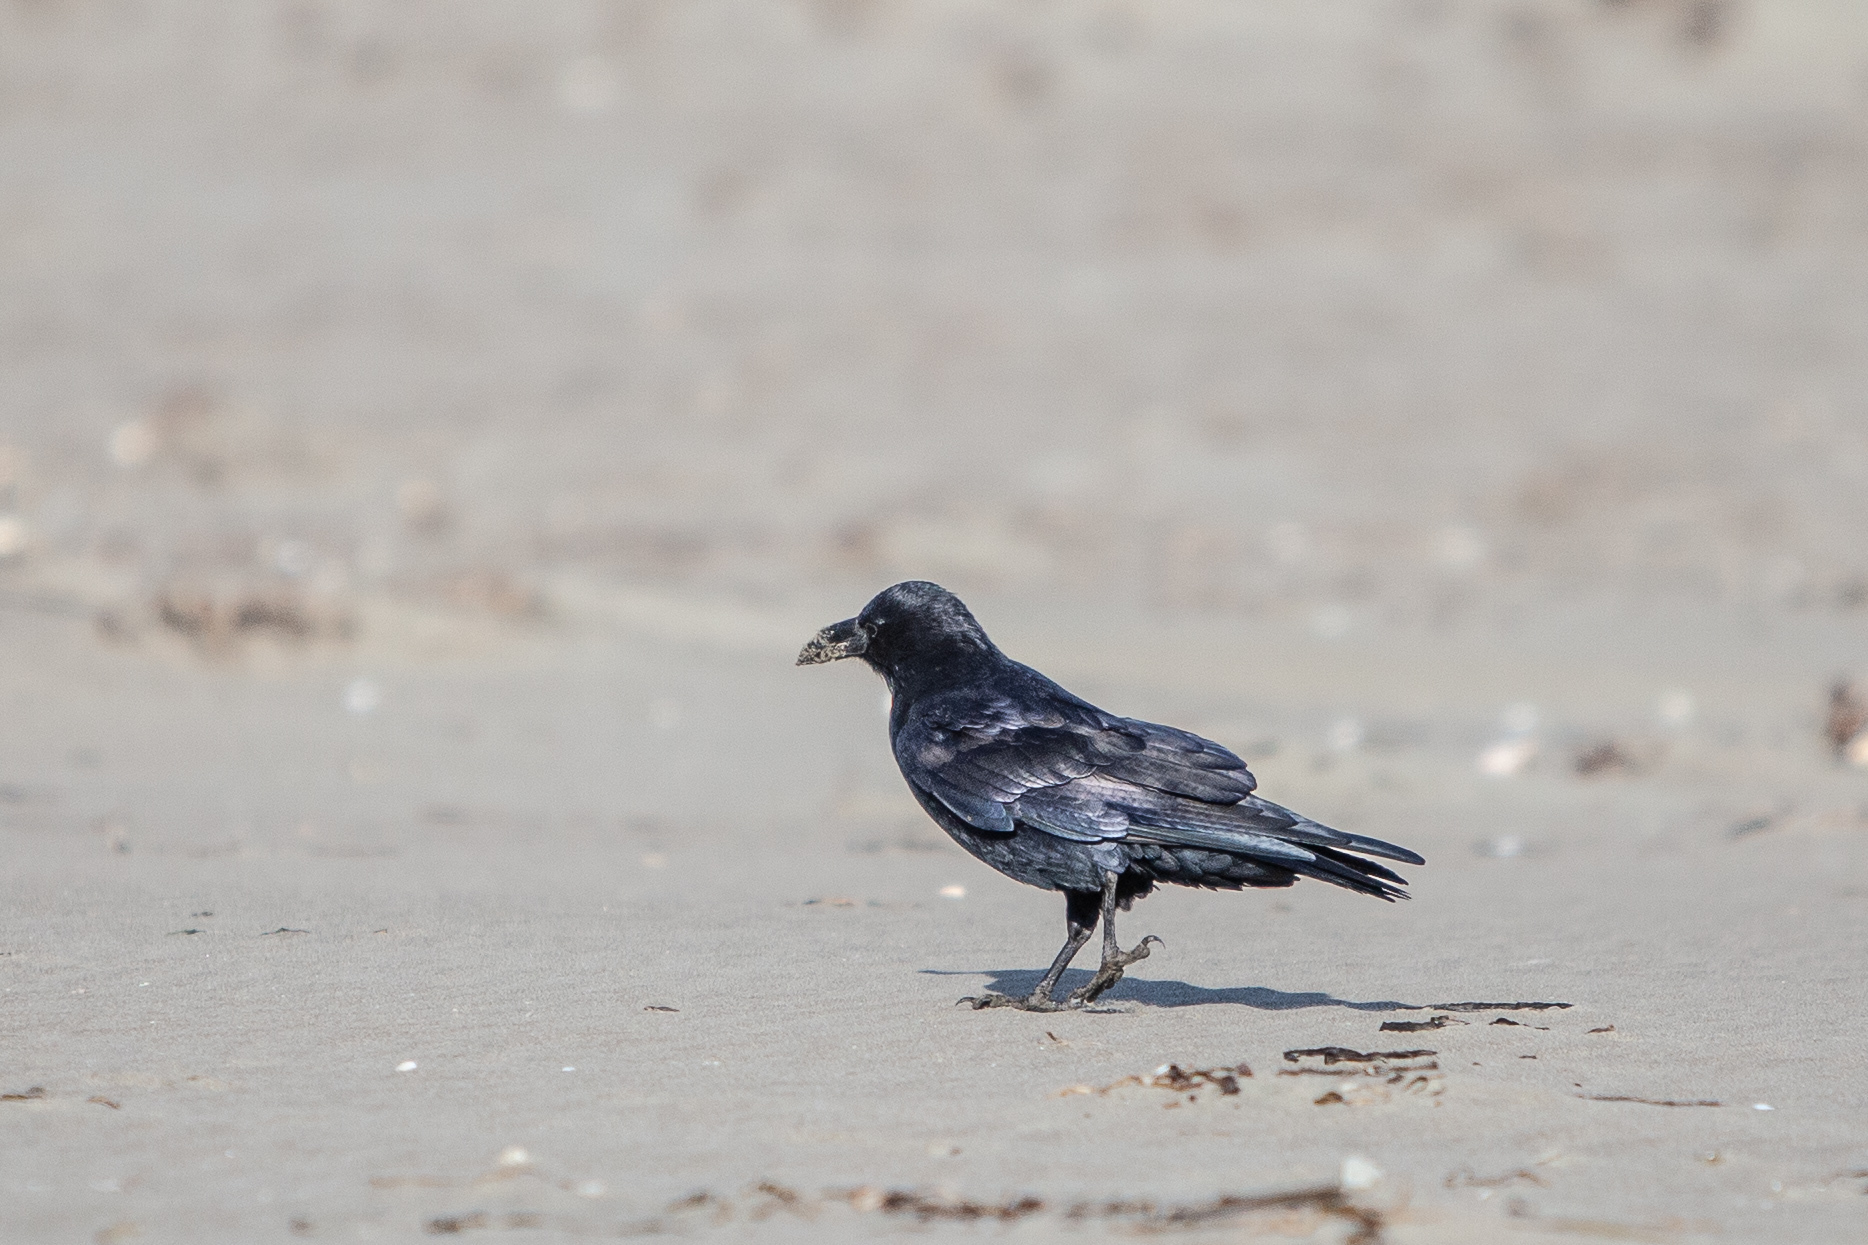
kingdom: Animalia
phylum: Chordata
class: Aves
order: Passeriformes
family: Corvidae
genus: Corvus
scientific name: Corvus corax
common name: Common raven
